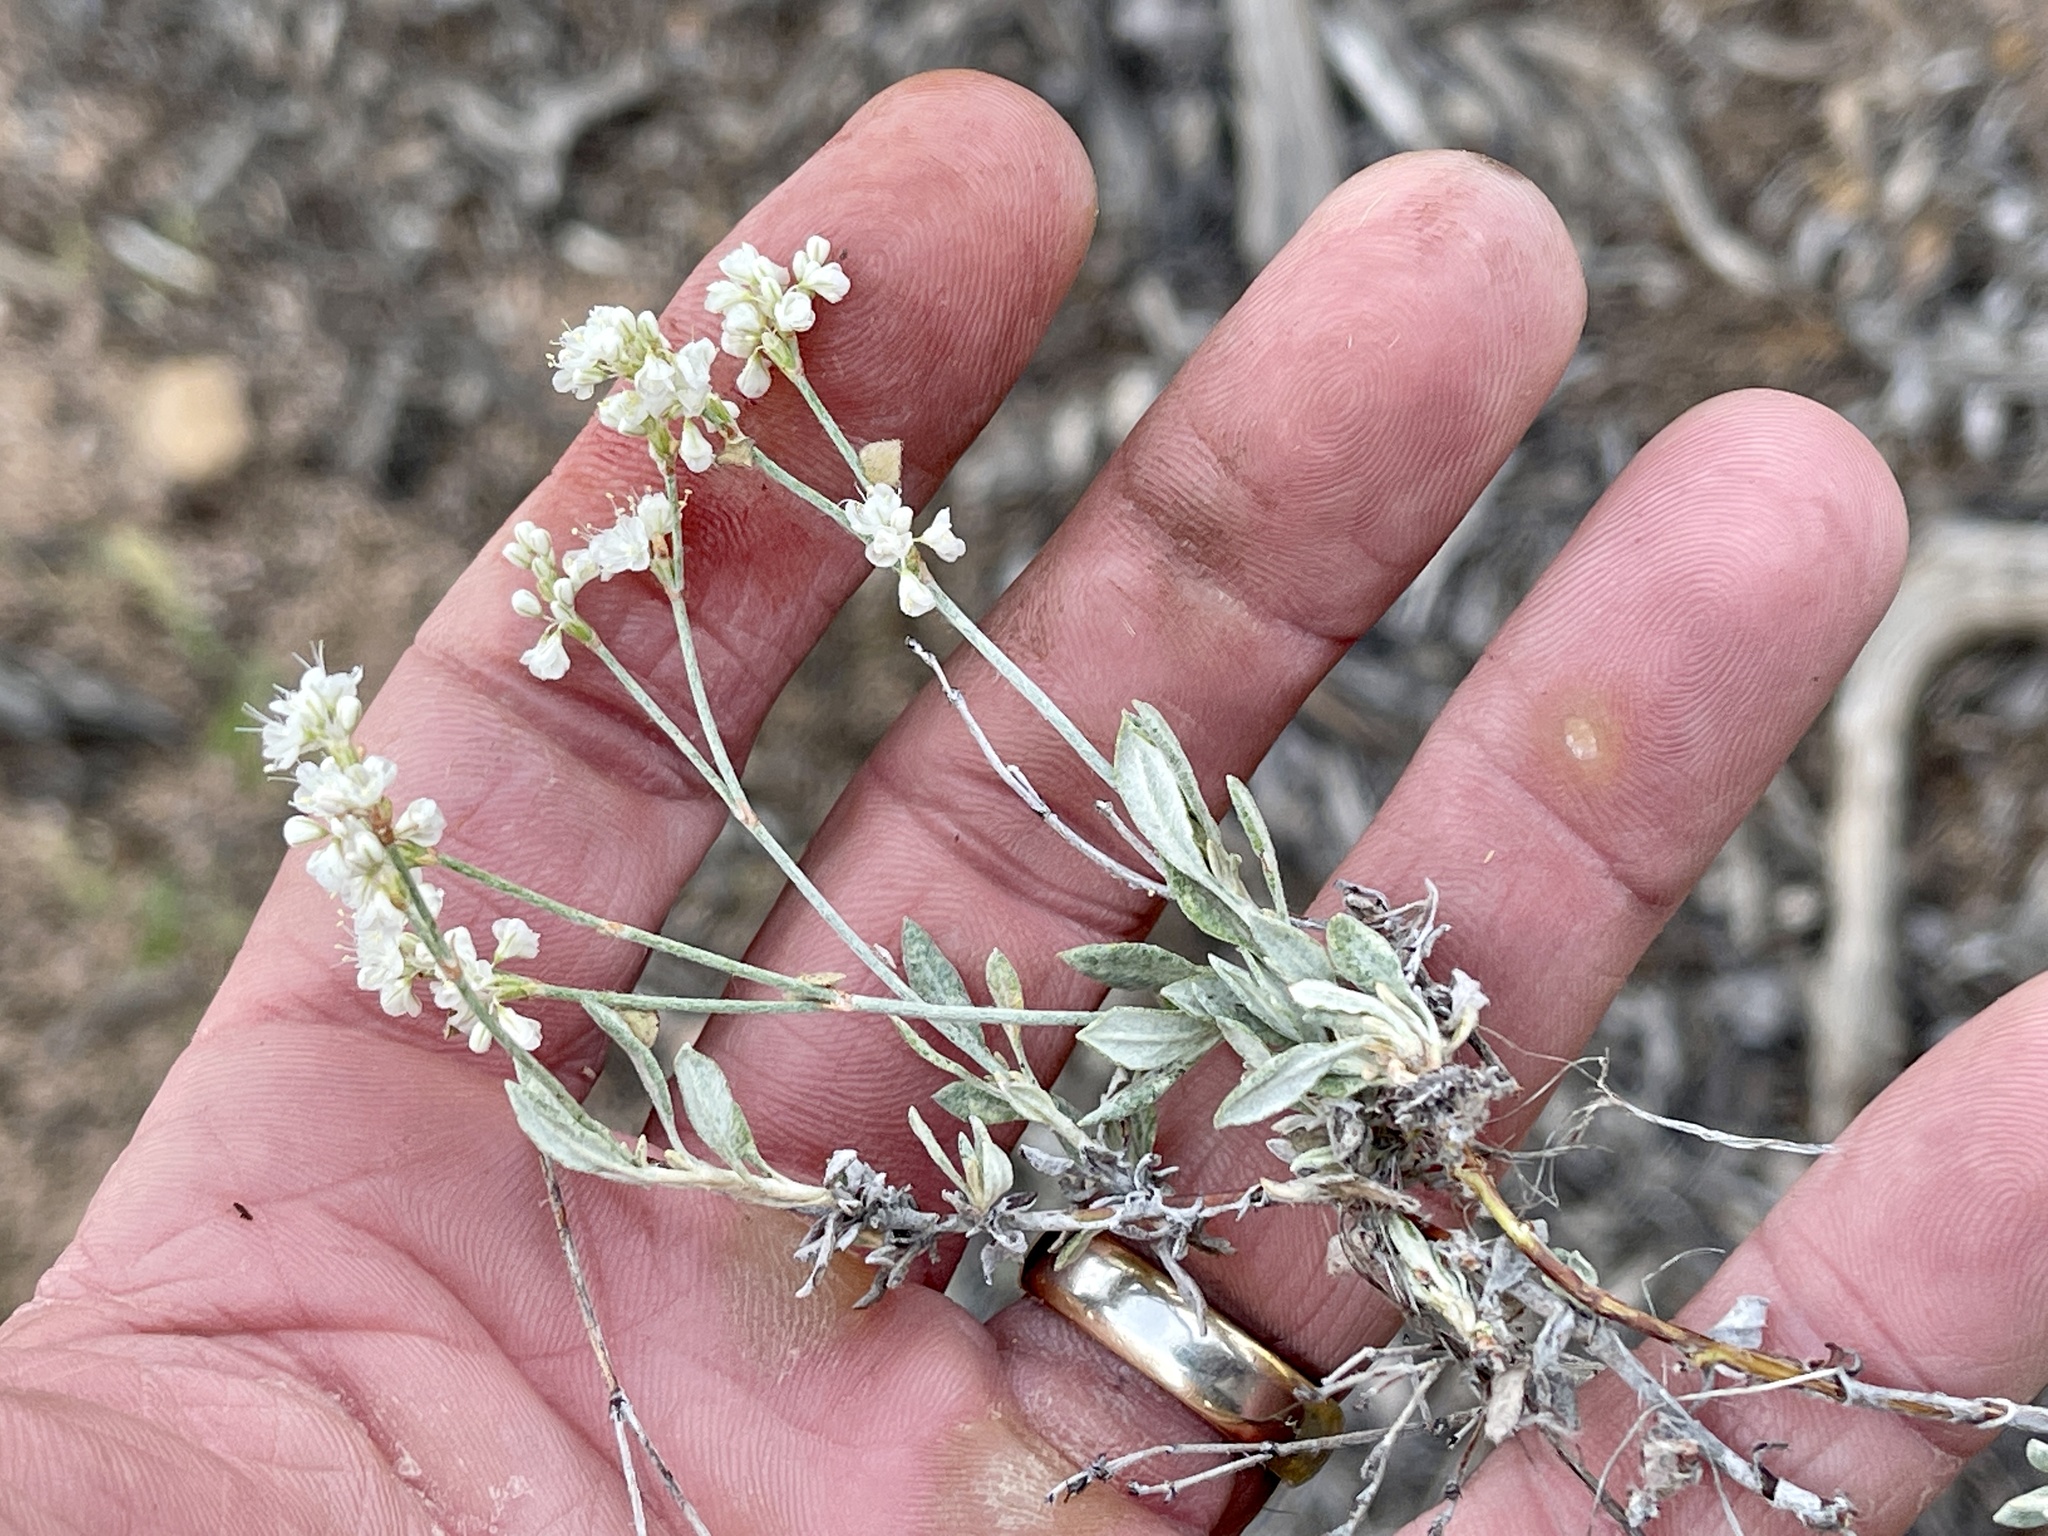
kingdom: Plantae
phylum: Tracheophyta
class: Magnoliopsida
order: Caryophyllales
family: Polygonaceae
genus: Eriogonum
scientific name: Eriogonum wrightii
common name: Bastard-sage
